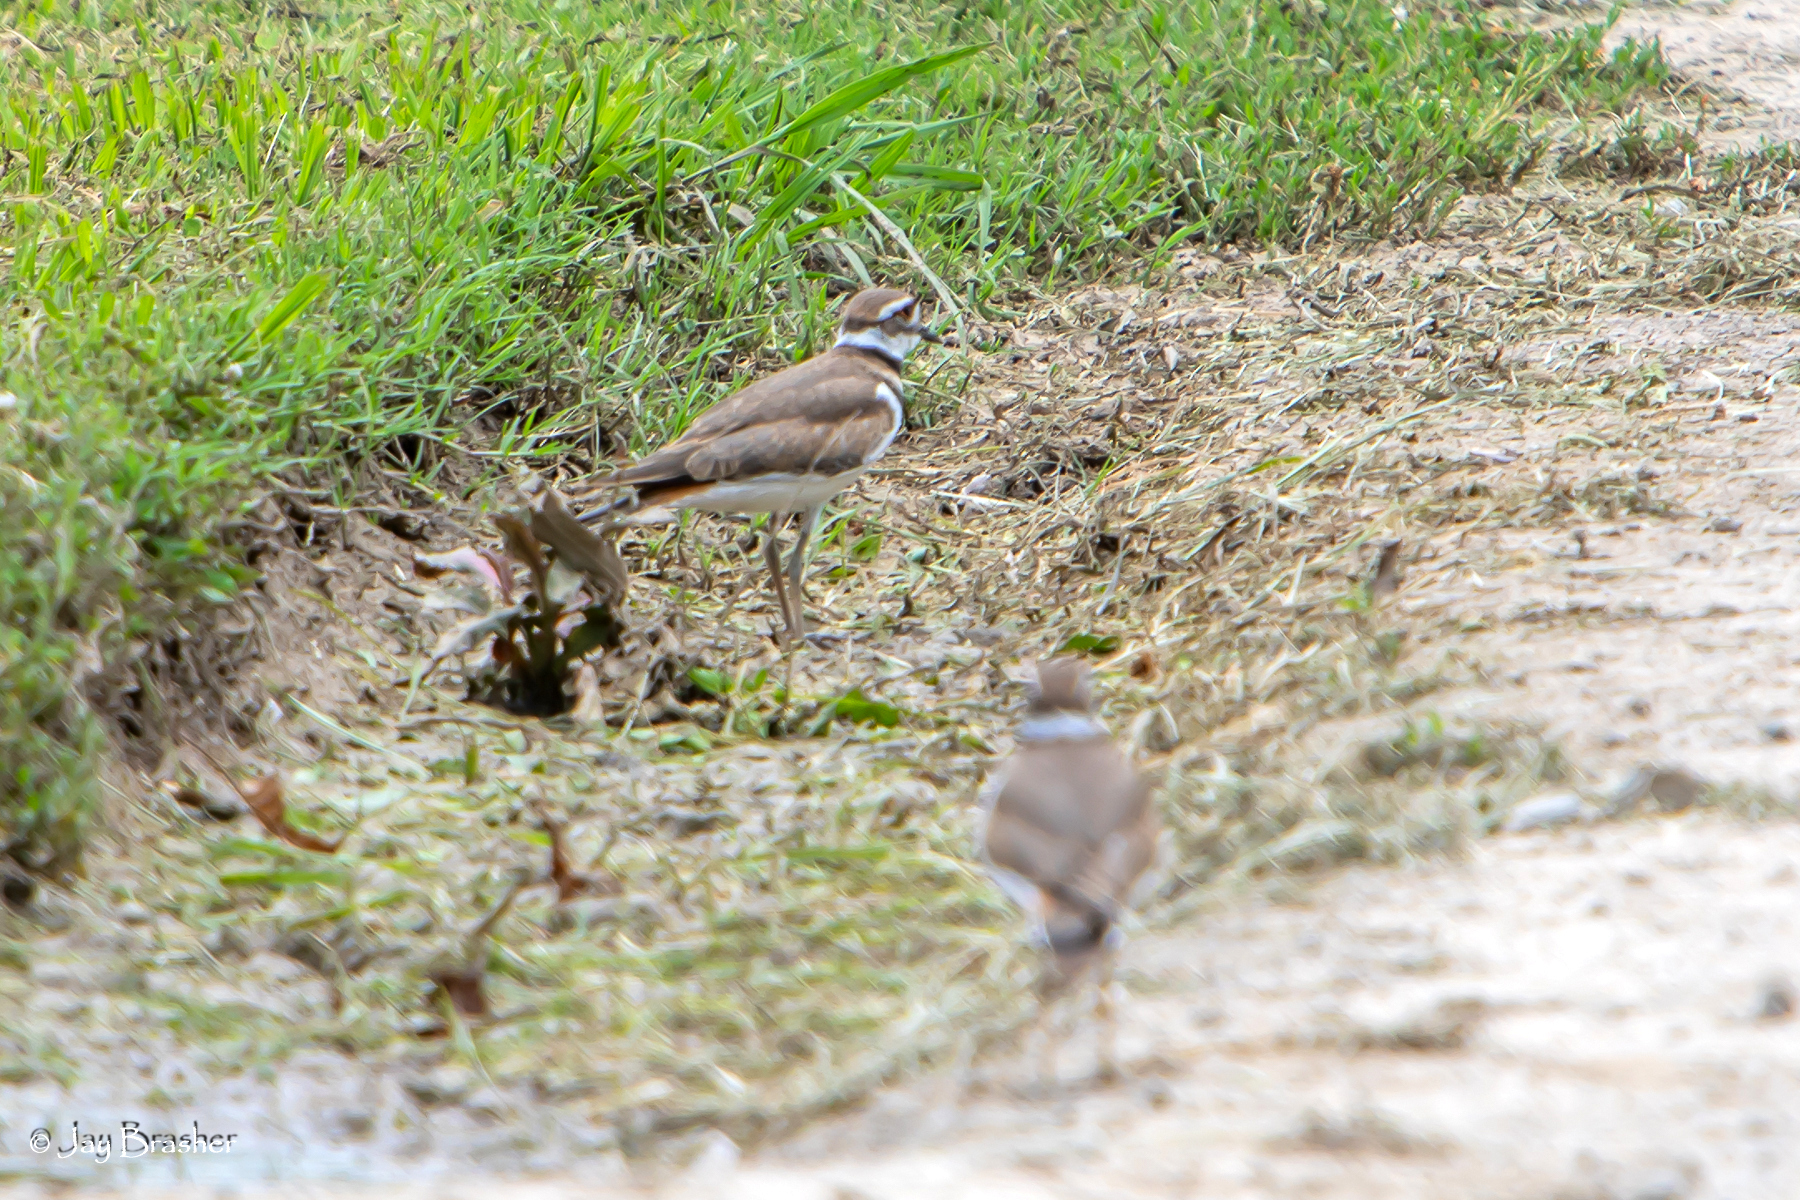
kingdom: Animalia
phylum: Chordata
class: Aves
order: Charadriiformes
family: Charadriidae
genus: Charadrius
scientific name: Charadrius vociferus
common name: Killdeer
